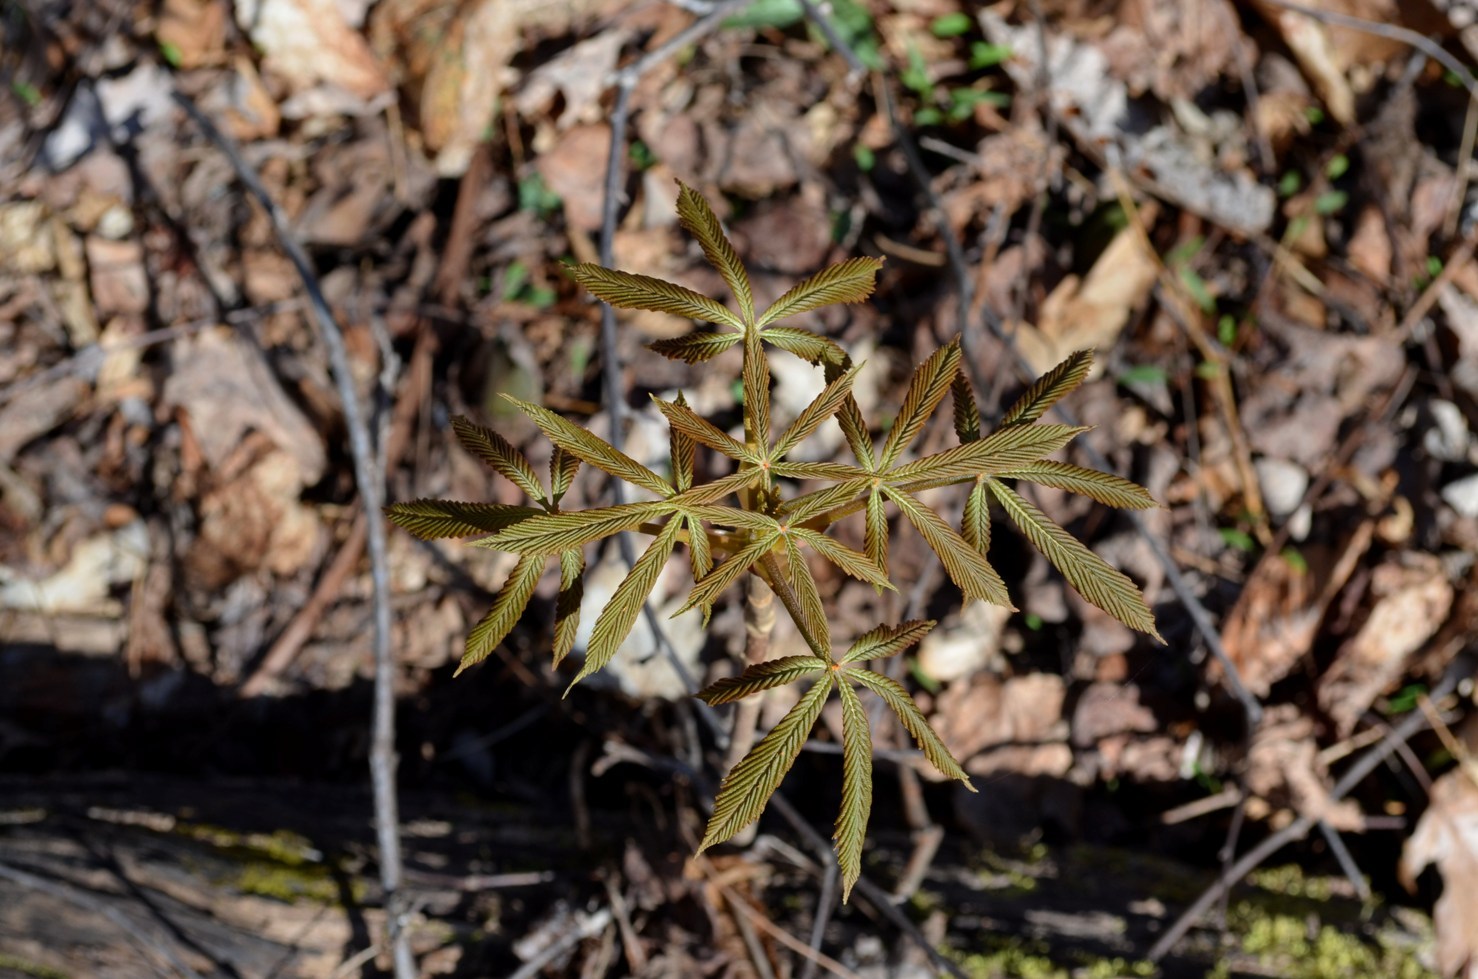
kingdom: Plantae
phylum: Tracheophyta
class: Magnoliopsida
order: Sapindales
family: Sapindaceae
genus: Aesculus
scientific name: Aesculus flava
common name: Yellow buckeye
